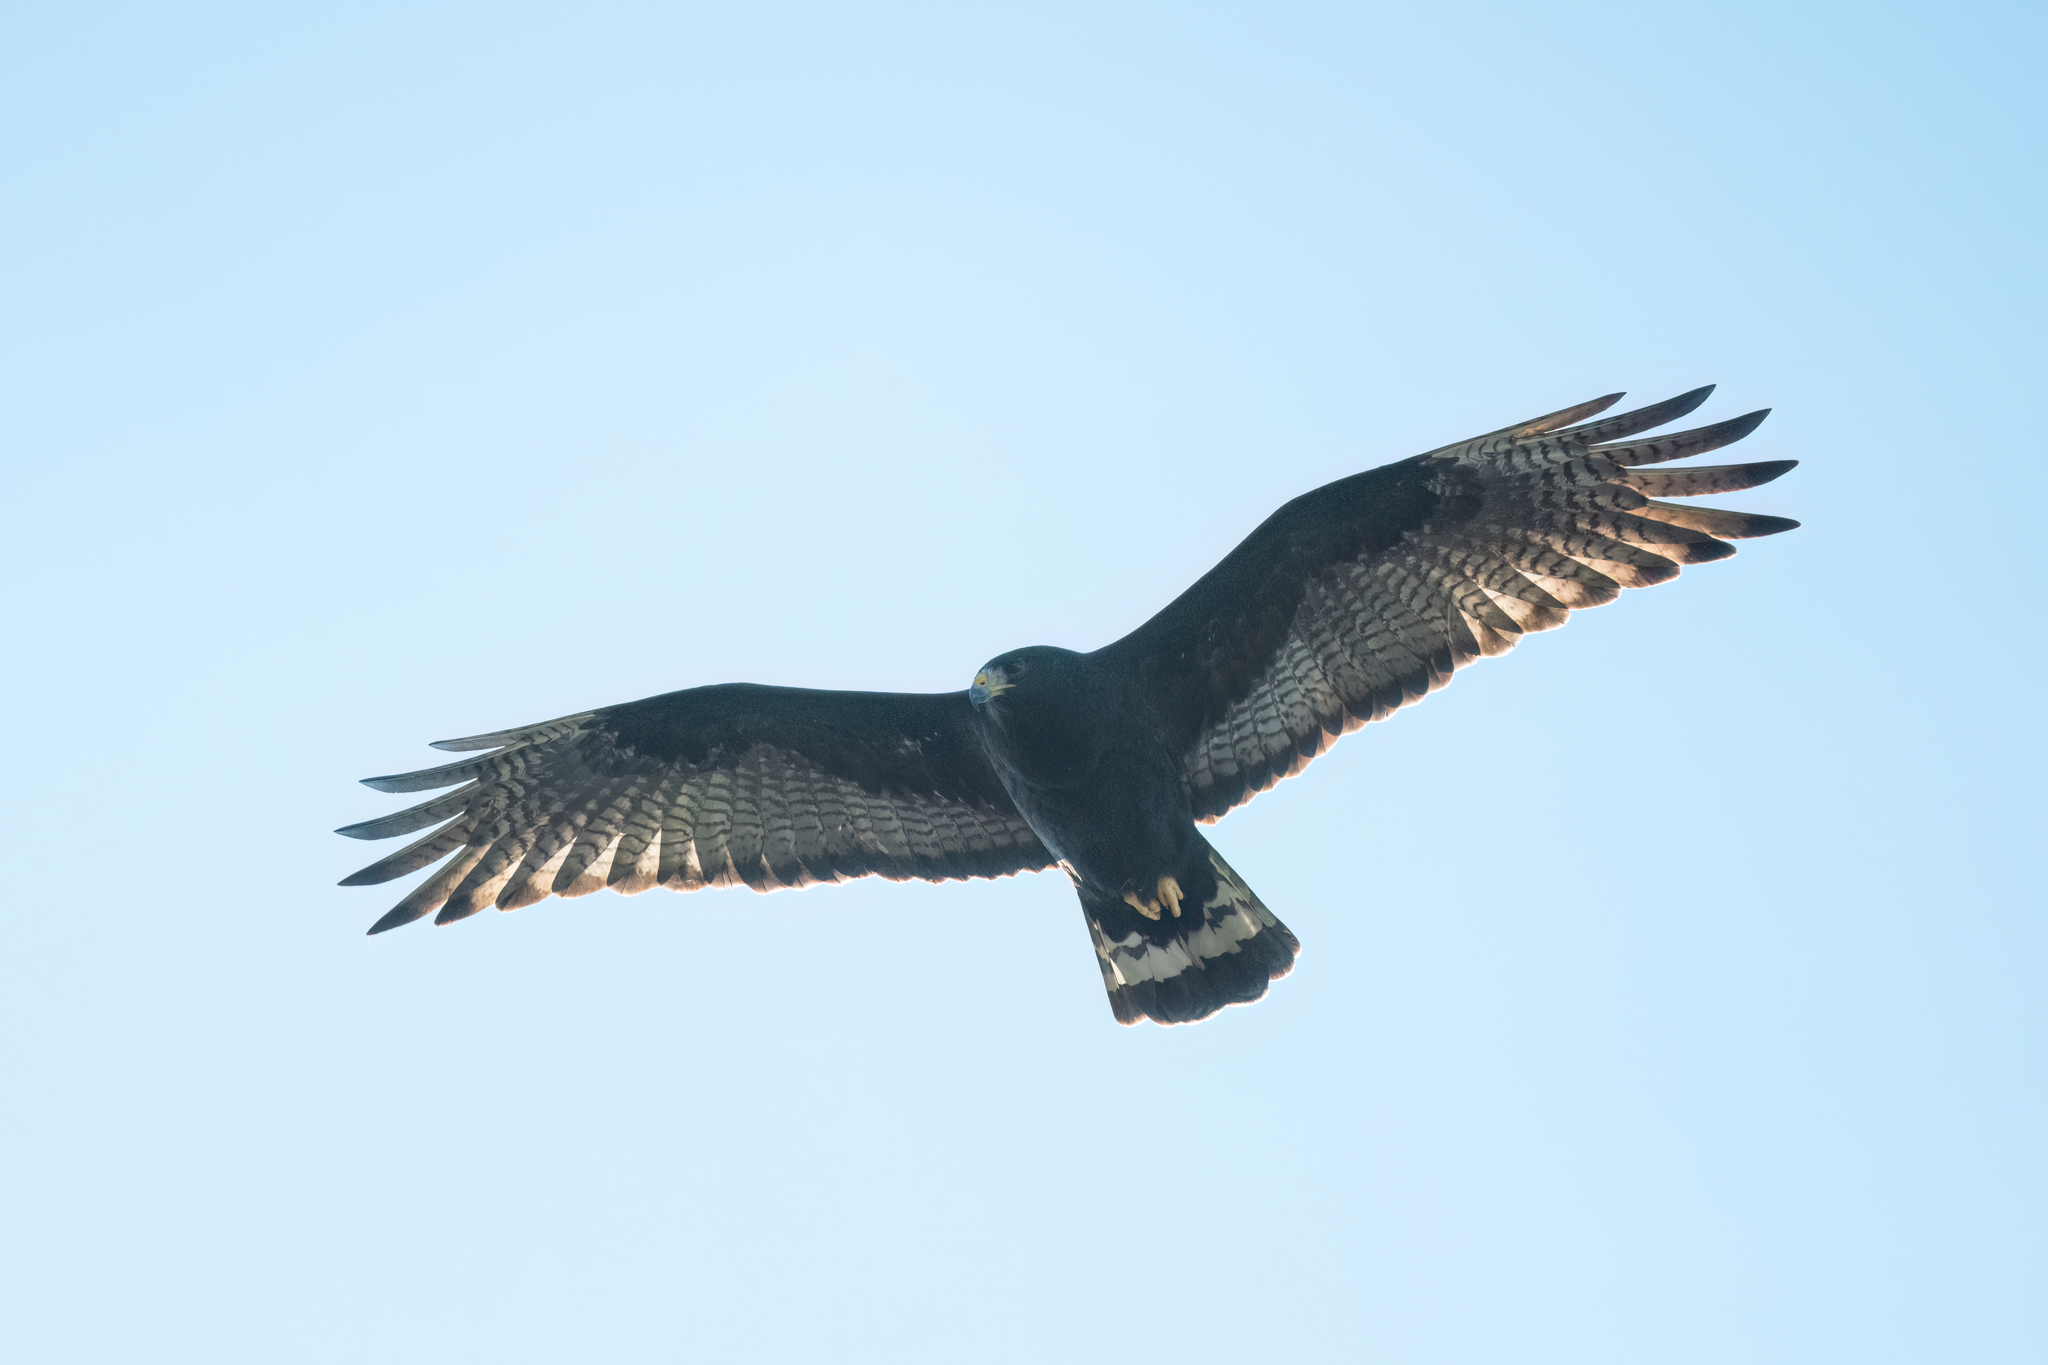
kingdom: Animalia
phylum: Chordata
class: Aves
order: Accipitriformes
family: Accipitridae
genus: Buteo
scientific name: Buteo albonotatus
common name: Zone-tailed hawk
